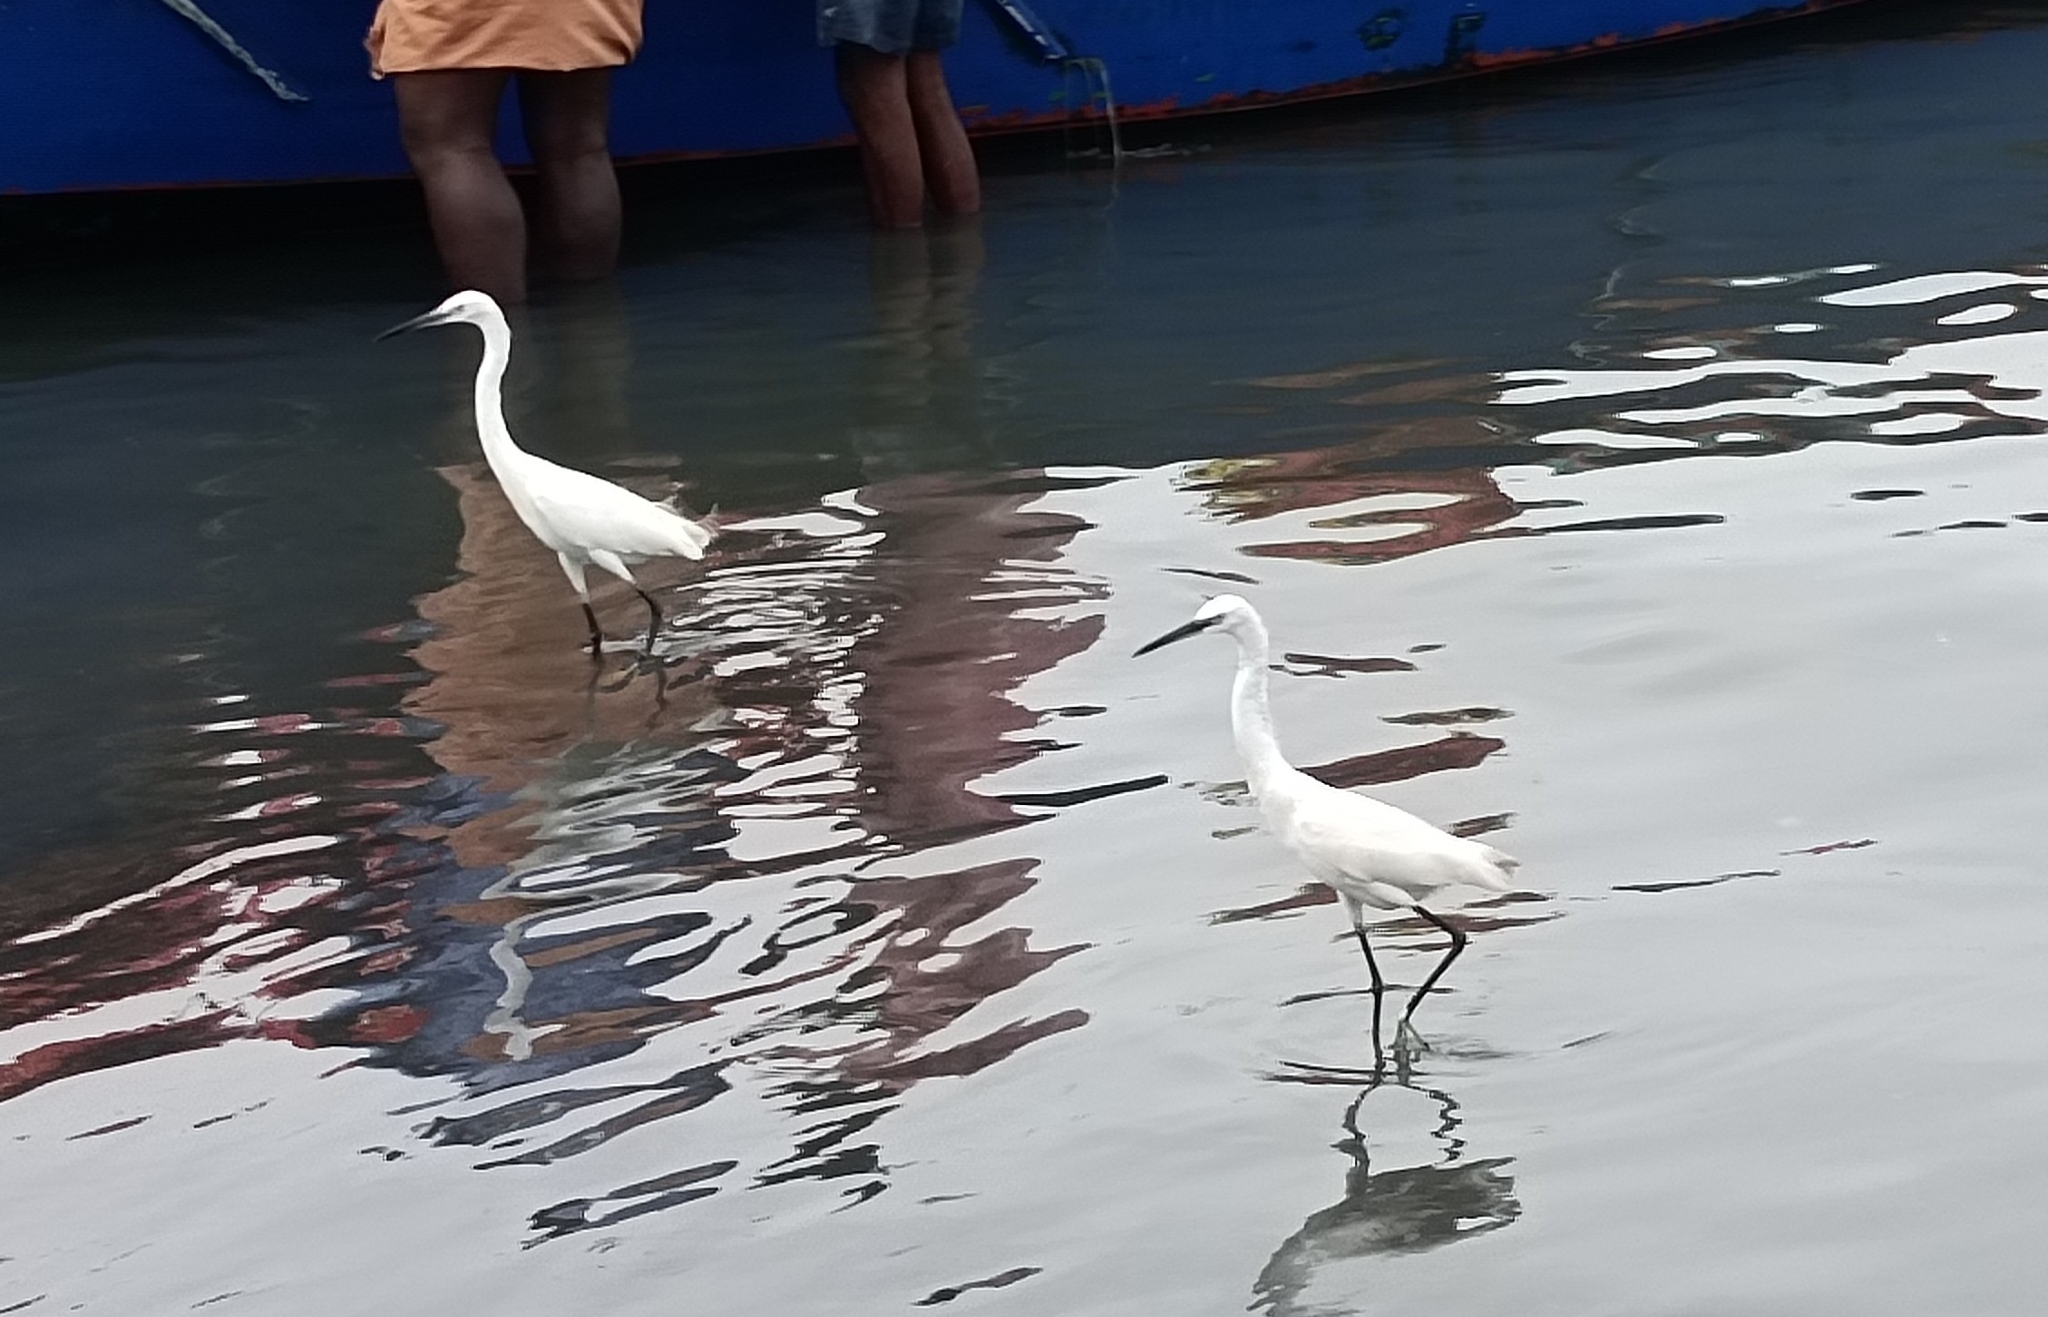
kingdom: Animalia
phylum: Chordata
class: Aves
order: Pelecaniformes
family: Ardeidae
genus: Egretta
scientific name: Egretta garzetta
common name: Little egret
